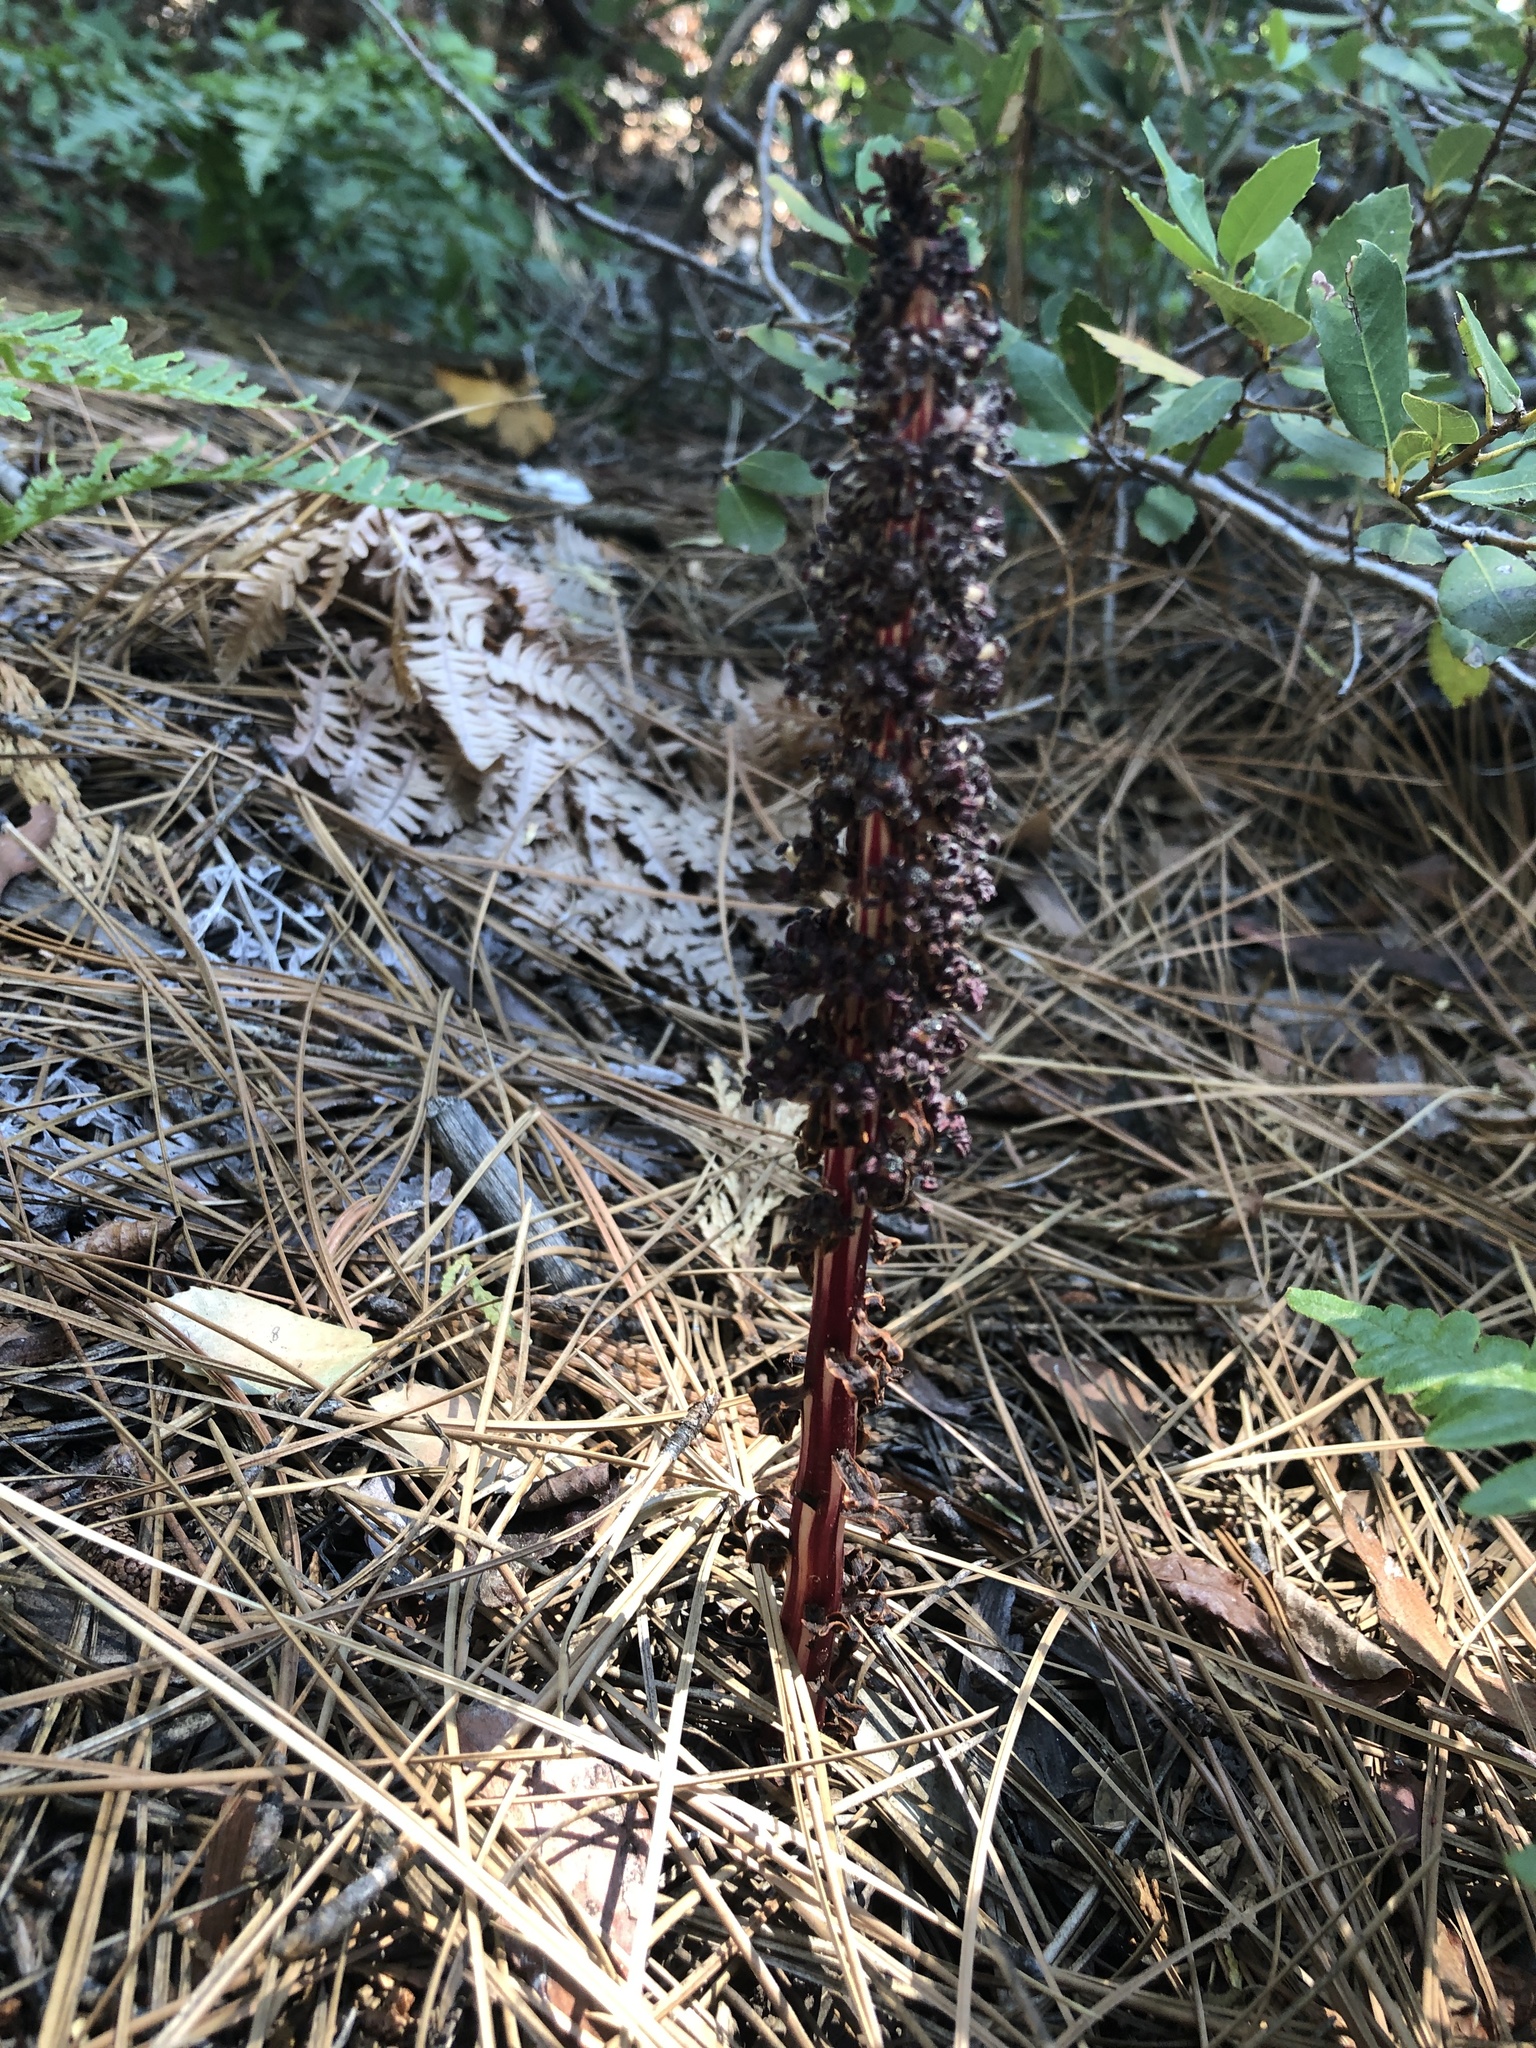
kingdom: Plantae
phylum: Tracheophyta
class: Magnoliopsida
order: Ericales
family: Ericaceae
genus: Allotropa
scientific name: Allotropa virgata
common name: Candy-striped allotropa
